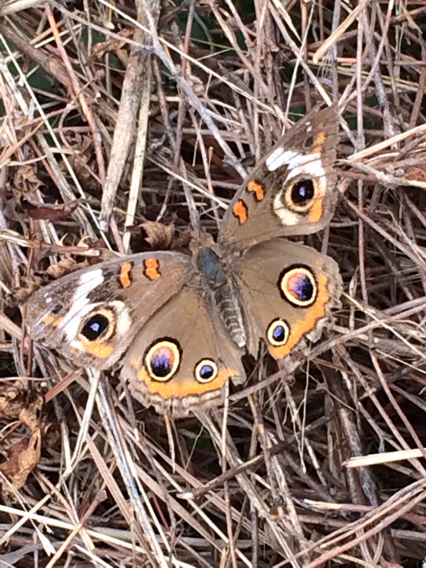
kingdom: Animalia
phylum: Arthropoda
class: Insecta
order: Lepidoptera
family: Nymphalidae
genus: Junonia
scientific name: Junonia coenia
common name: Common buckeye
